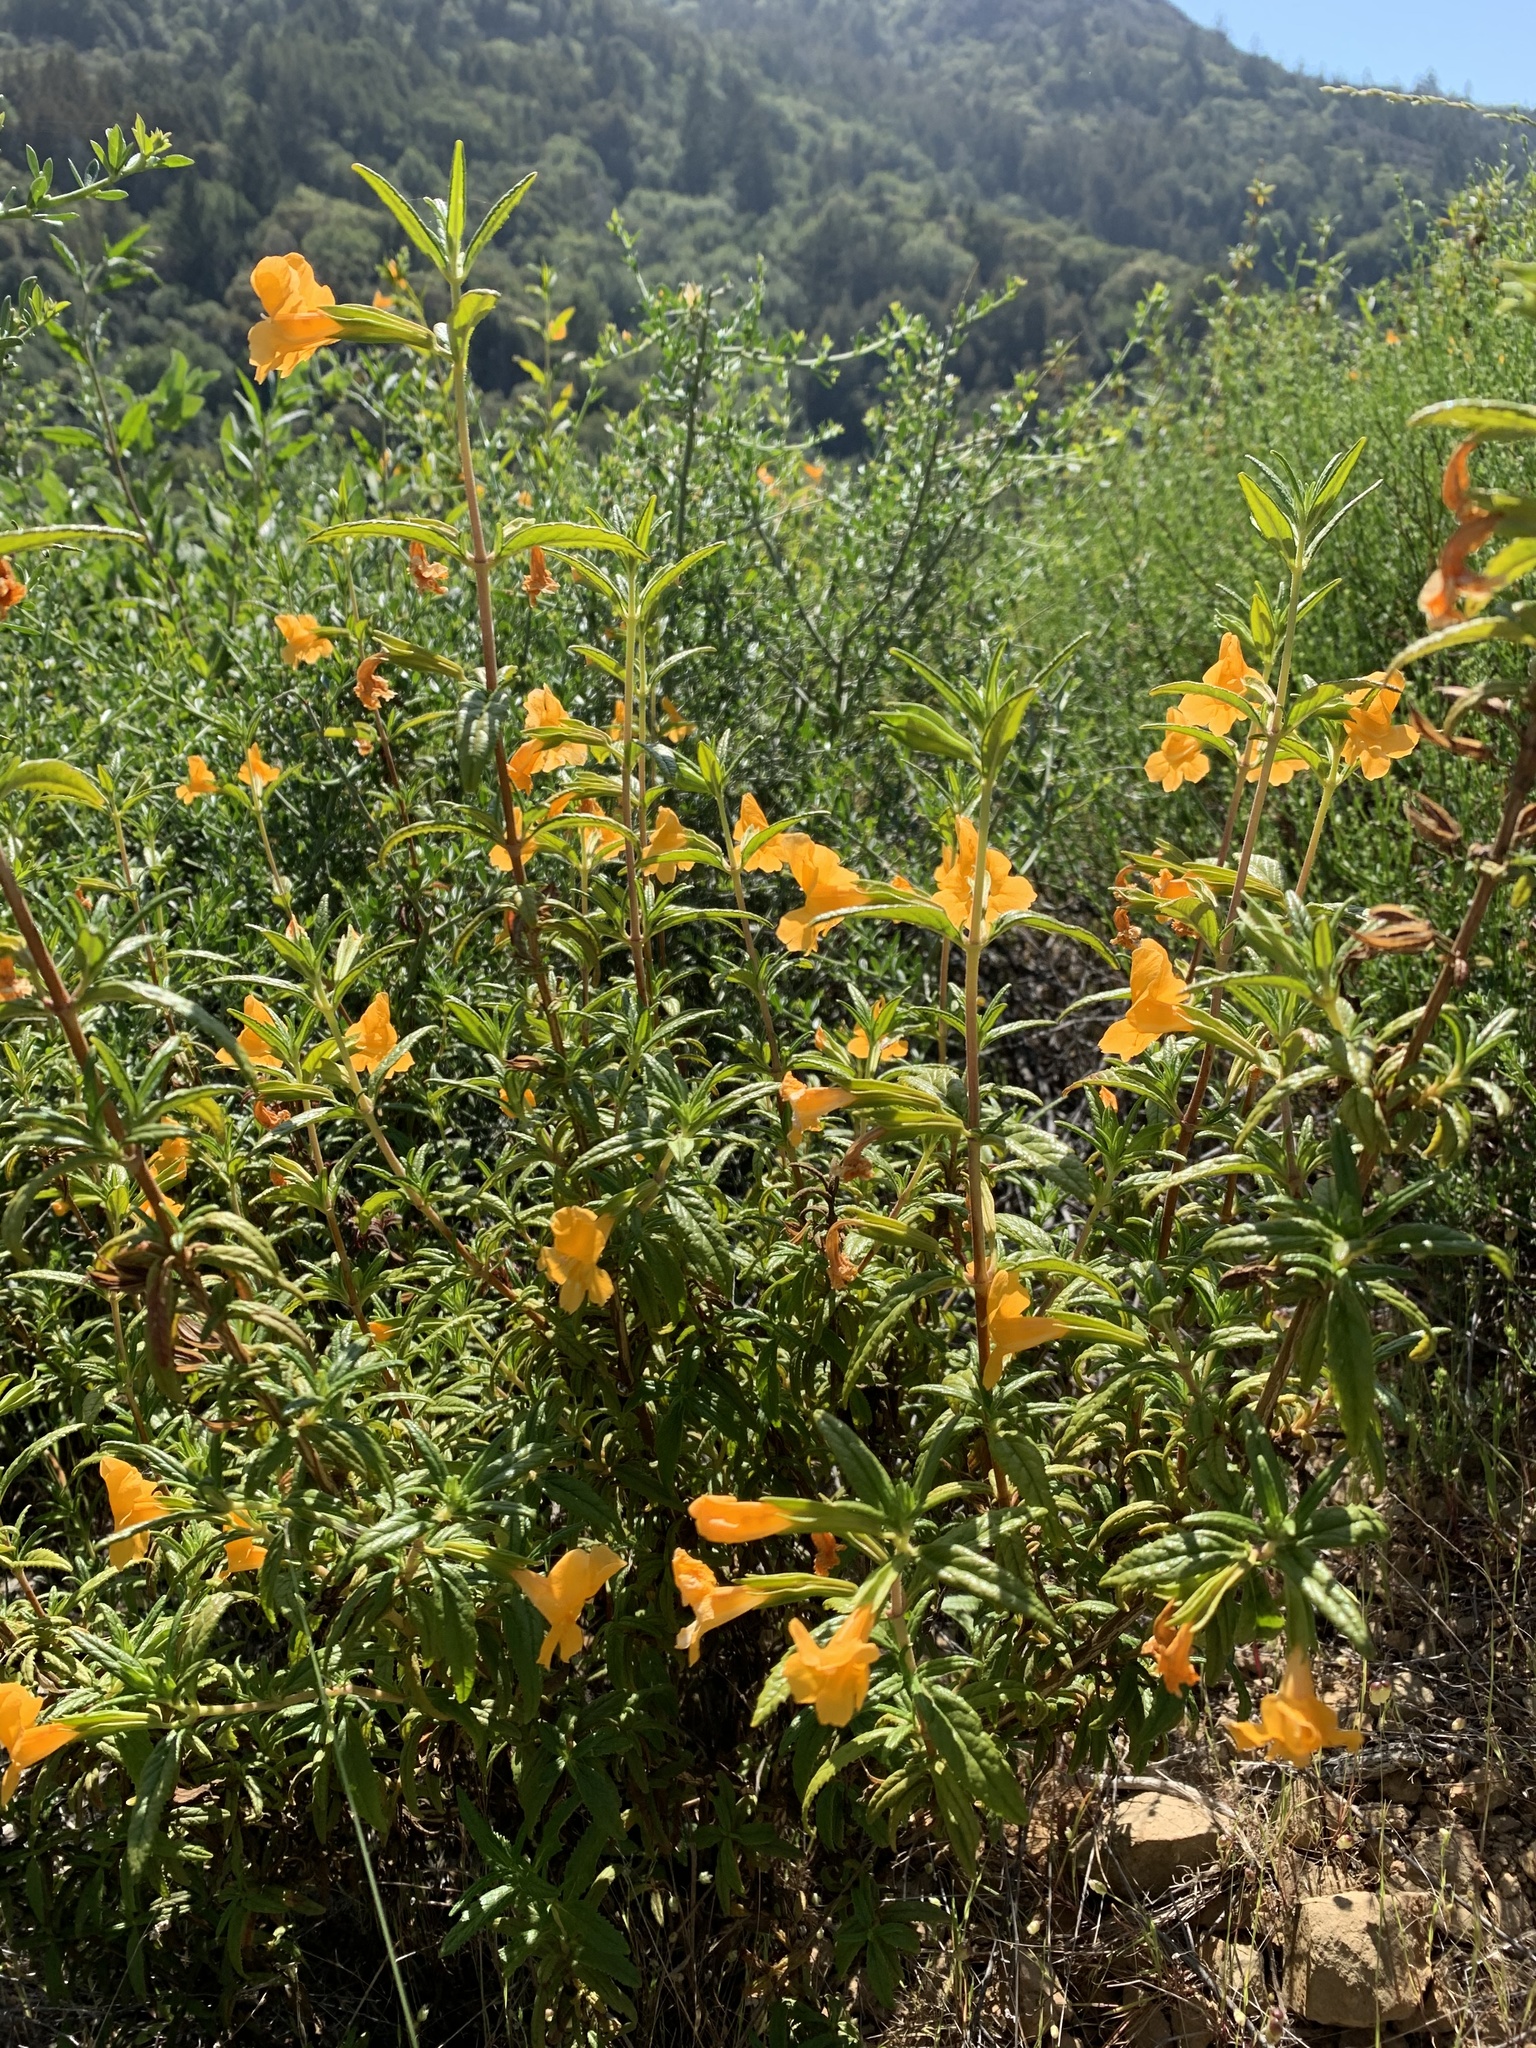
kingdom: Plantae
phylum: Tracheophyta
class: Magnoliopsida
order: Lamiales
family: Phrymaceae
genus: Diplacus
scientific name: Diplacus aurantiacus
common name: Bush monkey-flower
